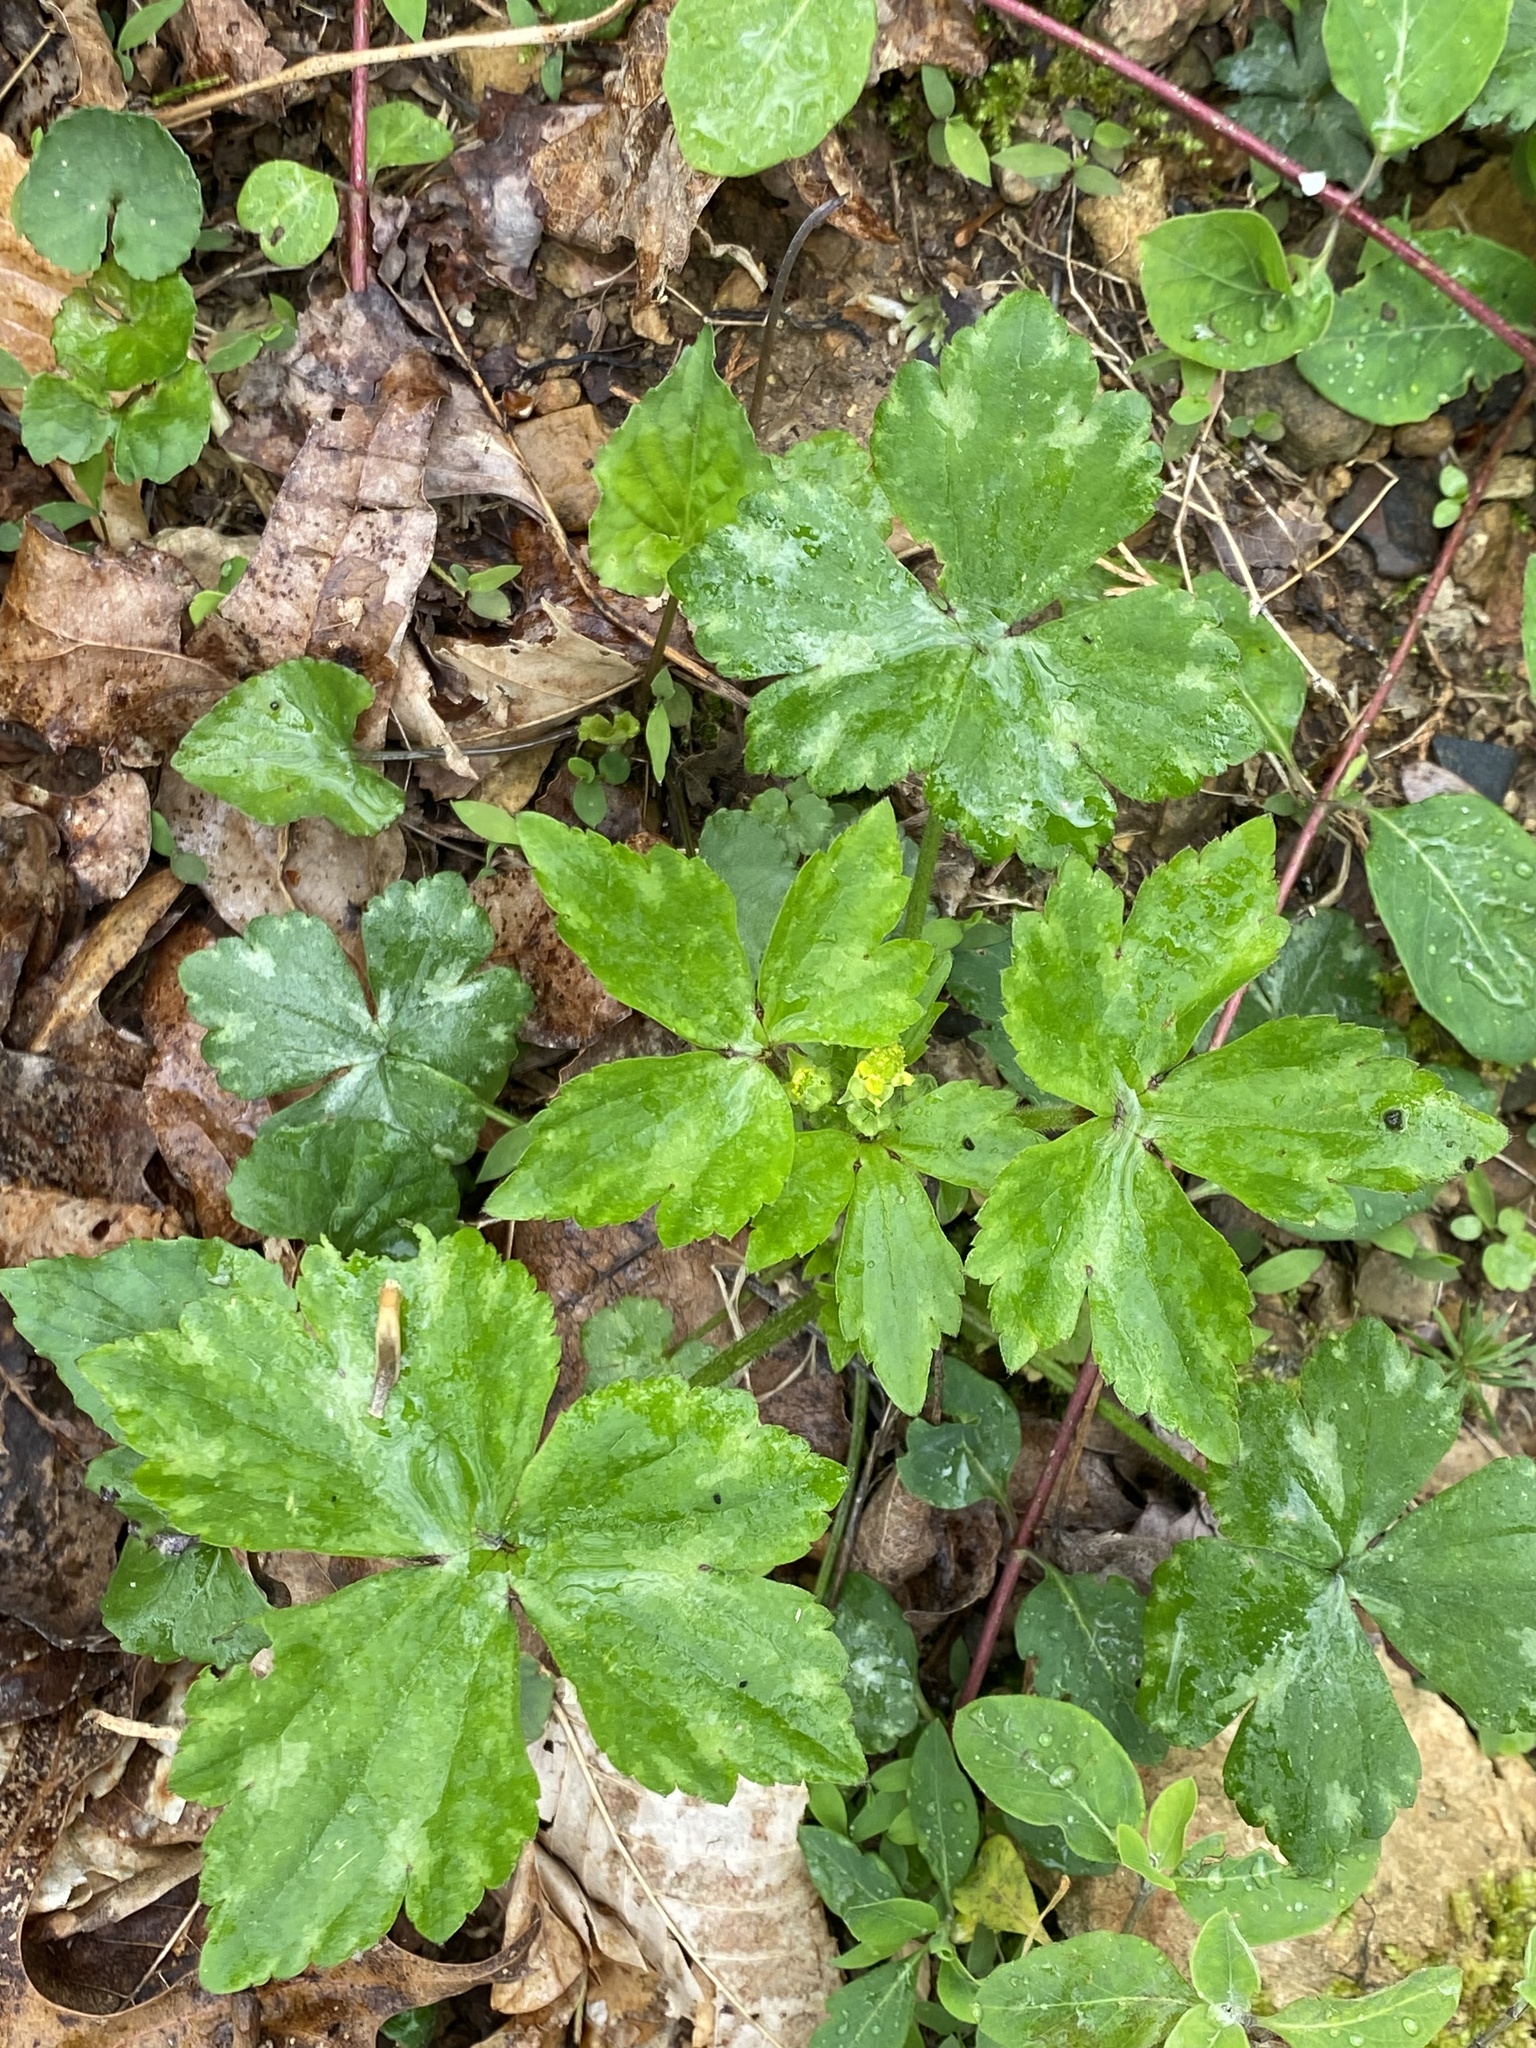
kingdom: Plantae
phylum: Tracheophyta
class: Magnoliopsida
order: Ranunculales
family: Ranunculaceae
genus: Ranunculus
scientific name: Ranunculus recurvatus
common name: Blisterwort
